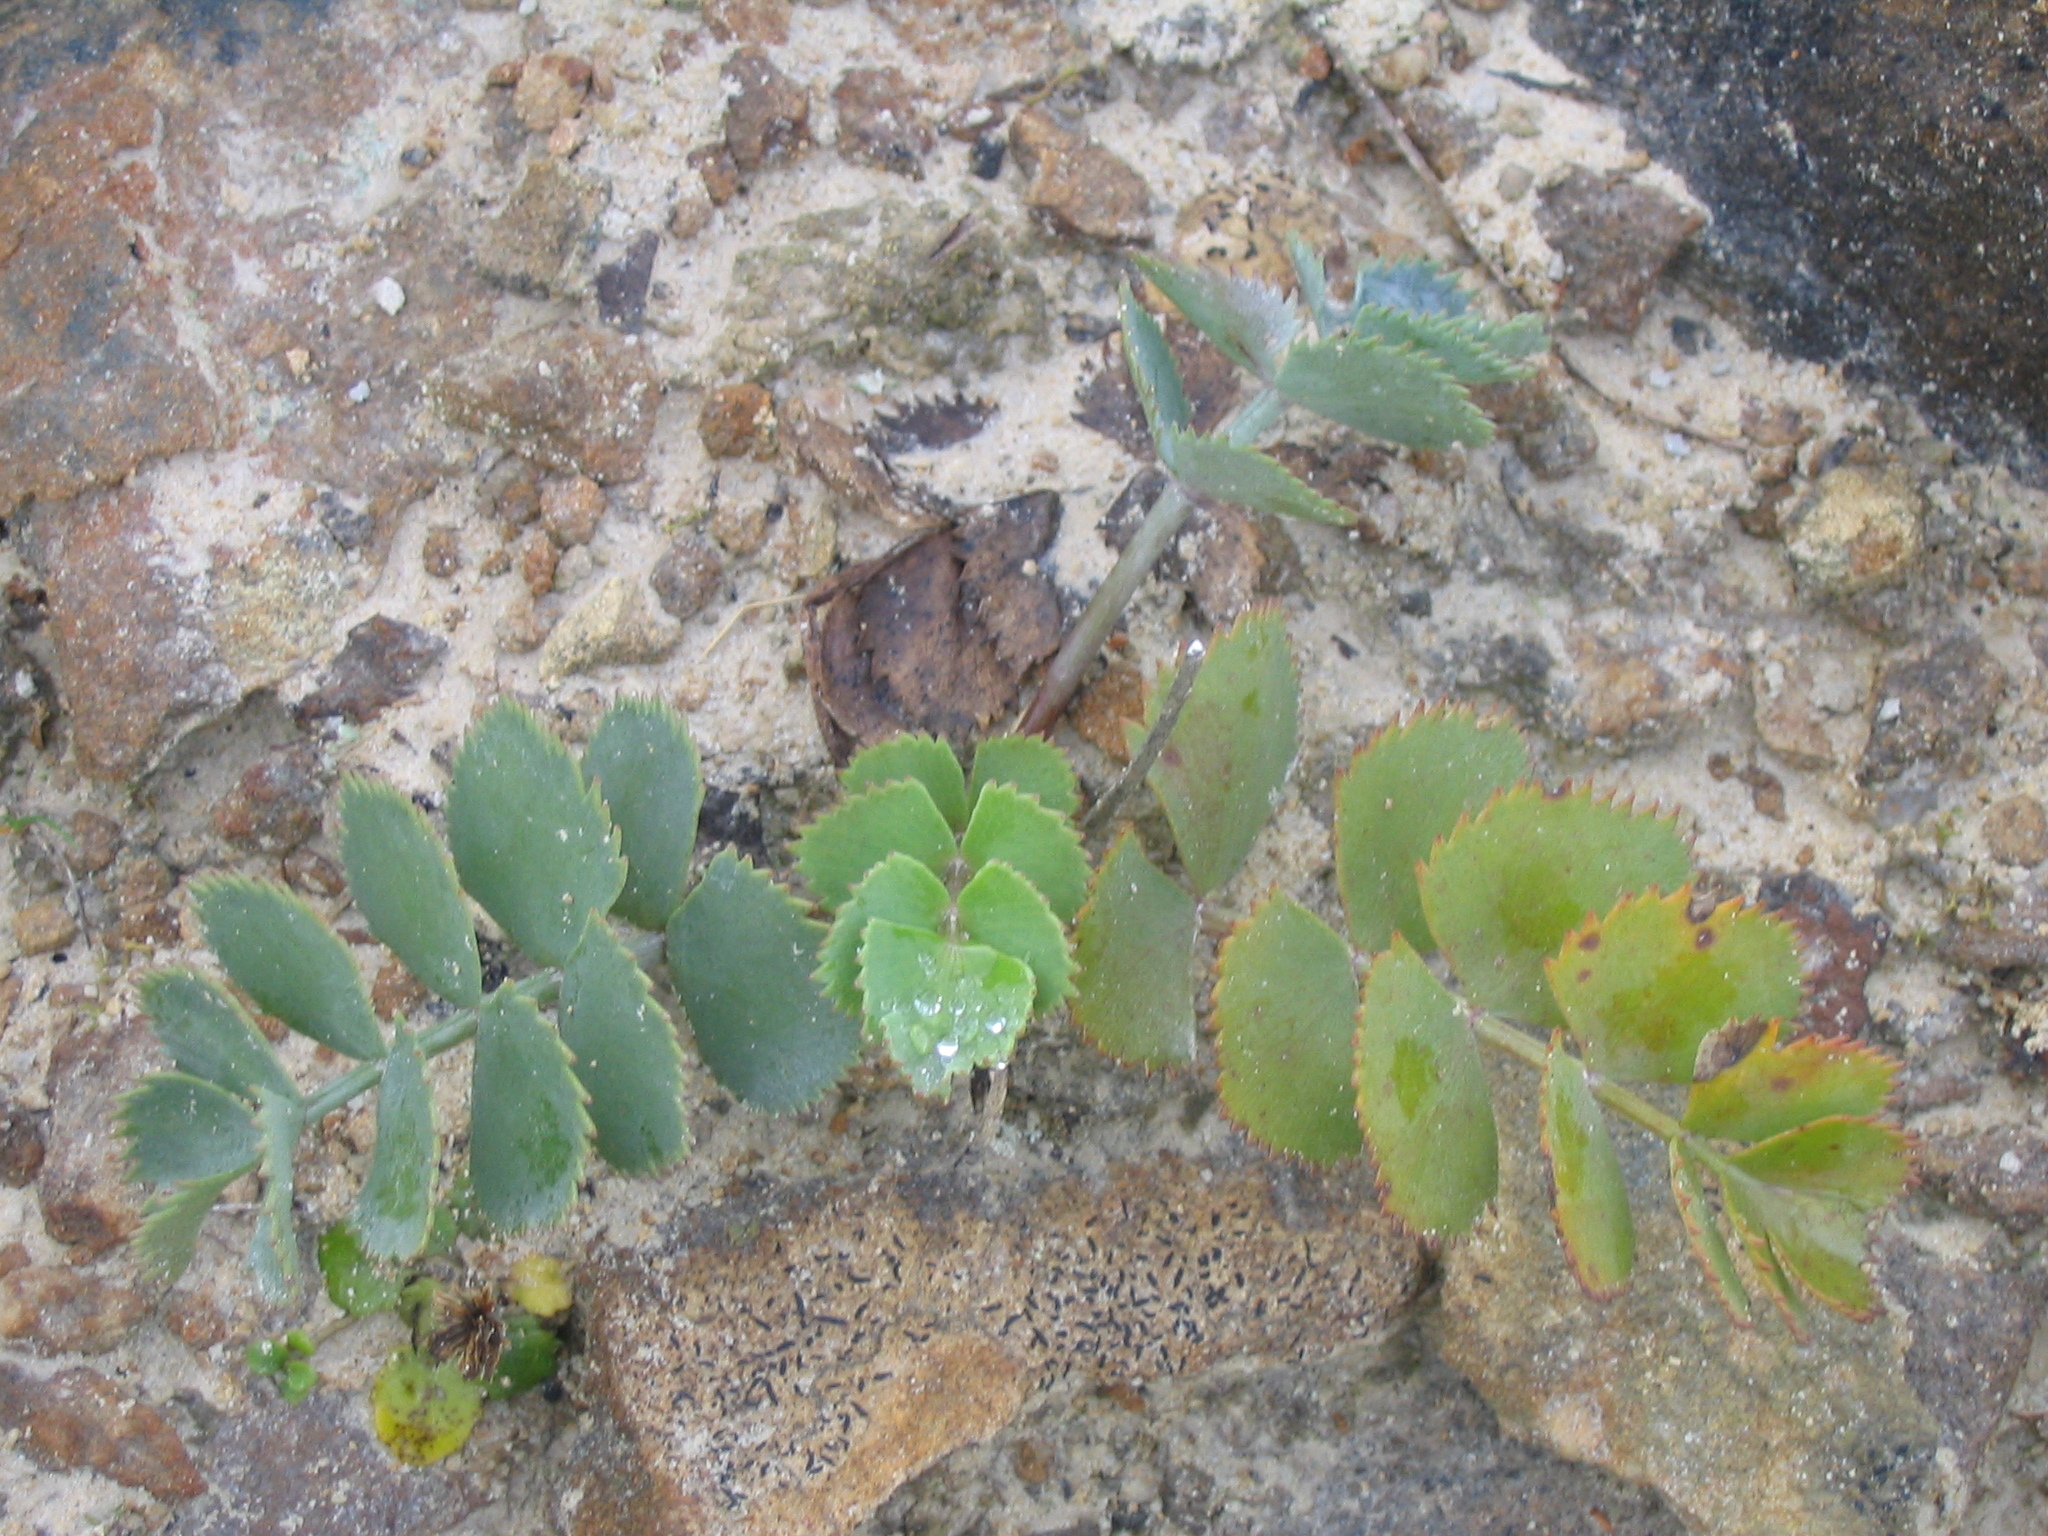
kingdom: Plantae
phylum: Tracheophyta
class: Magnoliopsida
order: Apiales
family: Apiaceae
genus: Gingidia
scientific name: Gingidia grisea
